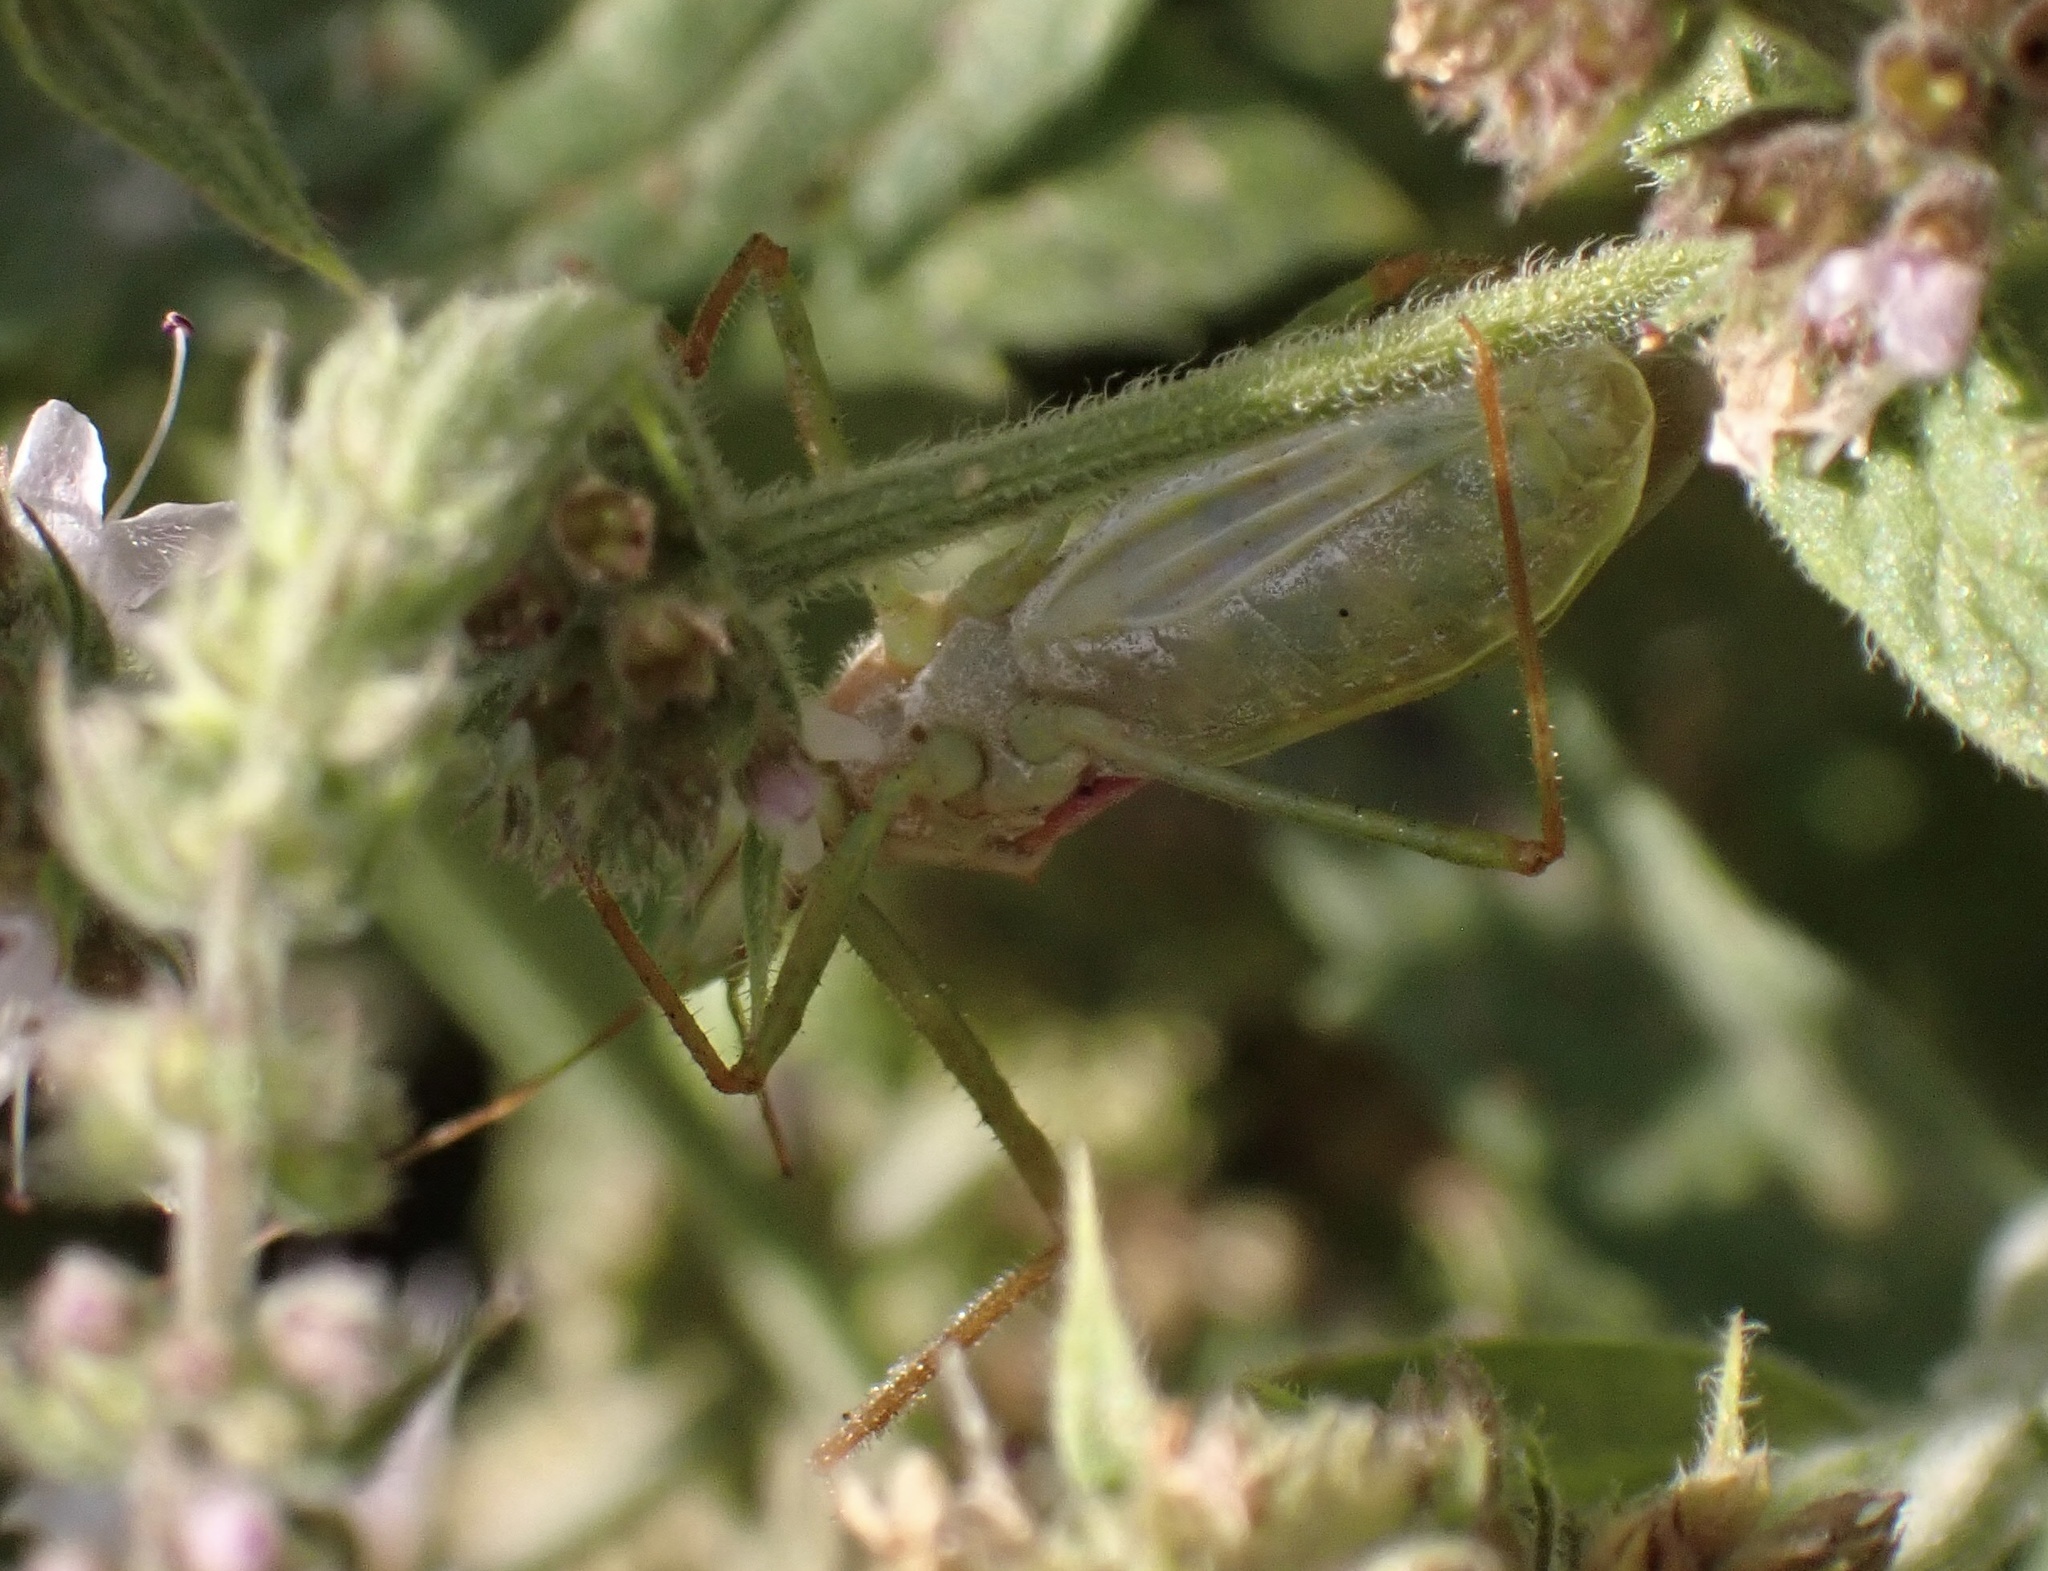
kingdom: Animalia
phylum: Arthropoda
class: Insecta
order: Hemiptera
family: Reduviidae
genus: Zelus
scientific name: Zelus renardii
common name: Assassin bug
